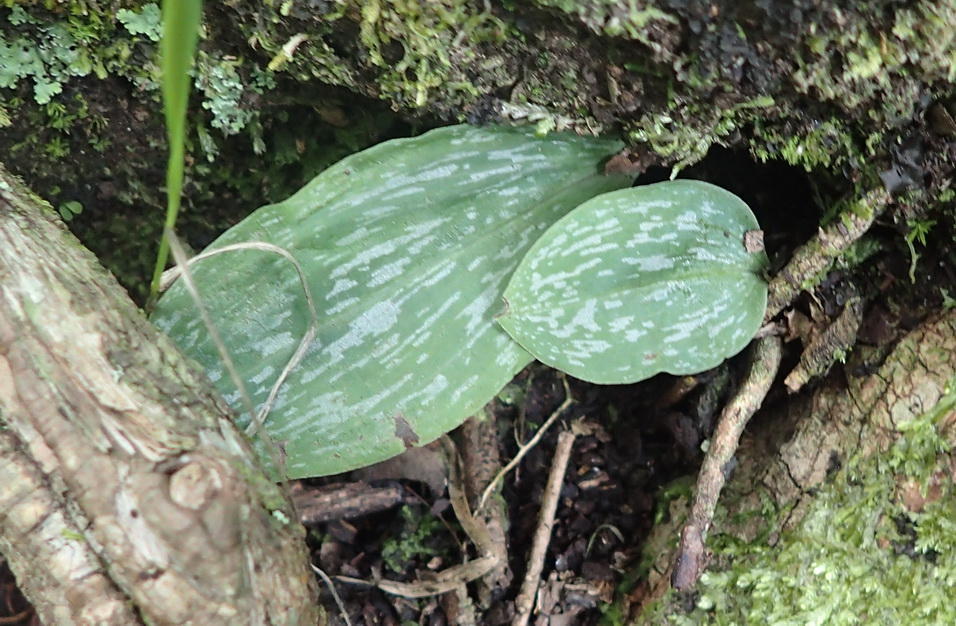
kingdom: Plantae
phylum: Tracheophyta
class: Liliopsida
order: Asparagales
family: Orchidaceae
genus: Habenaria
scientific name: Habenaria arenaria
